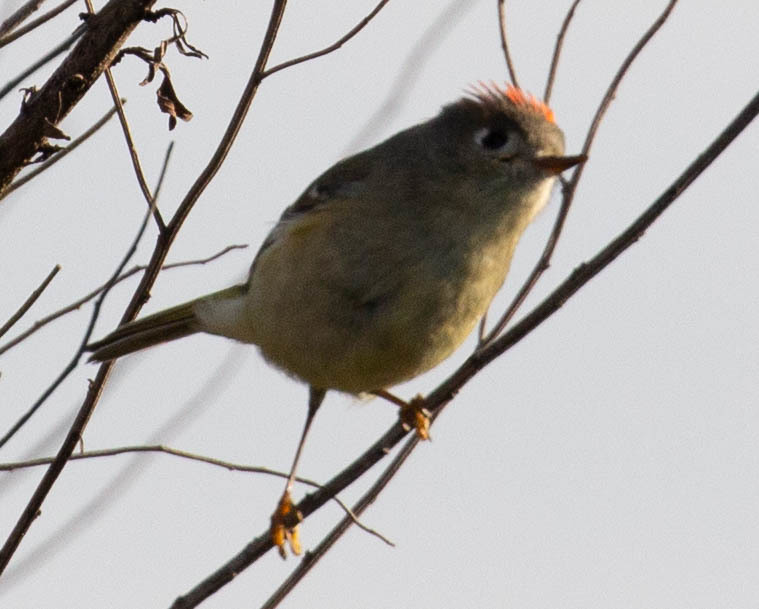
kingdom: Animalia
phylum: Chordata
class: Aves
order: Passeriformes
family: Regulidae
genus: Regulus
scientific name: Regulus calendula
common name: Ruby-crowned kinglet
